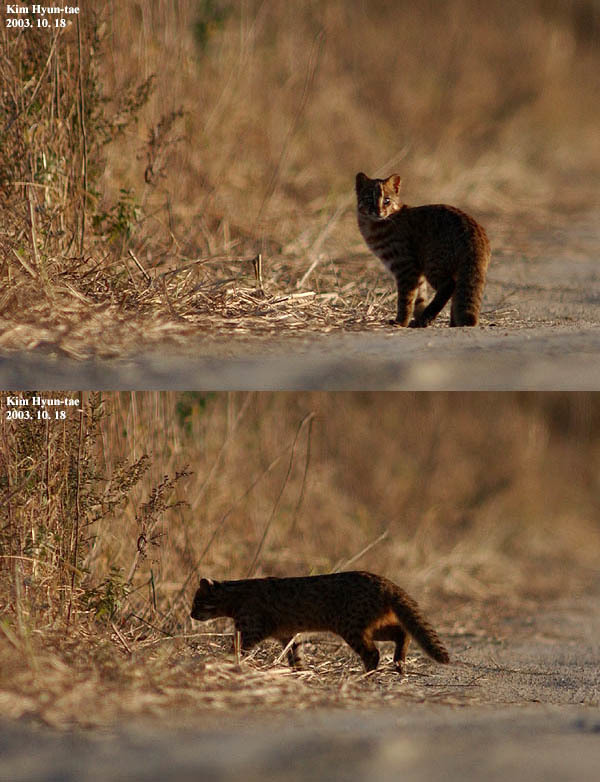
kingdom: Animalia
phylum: Chordata
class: Mammalia
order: Carnivora
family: Felidae
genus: Prionailurus
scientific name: Prionailurus bengalensis
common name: Leopard cat
